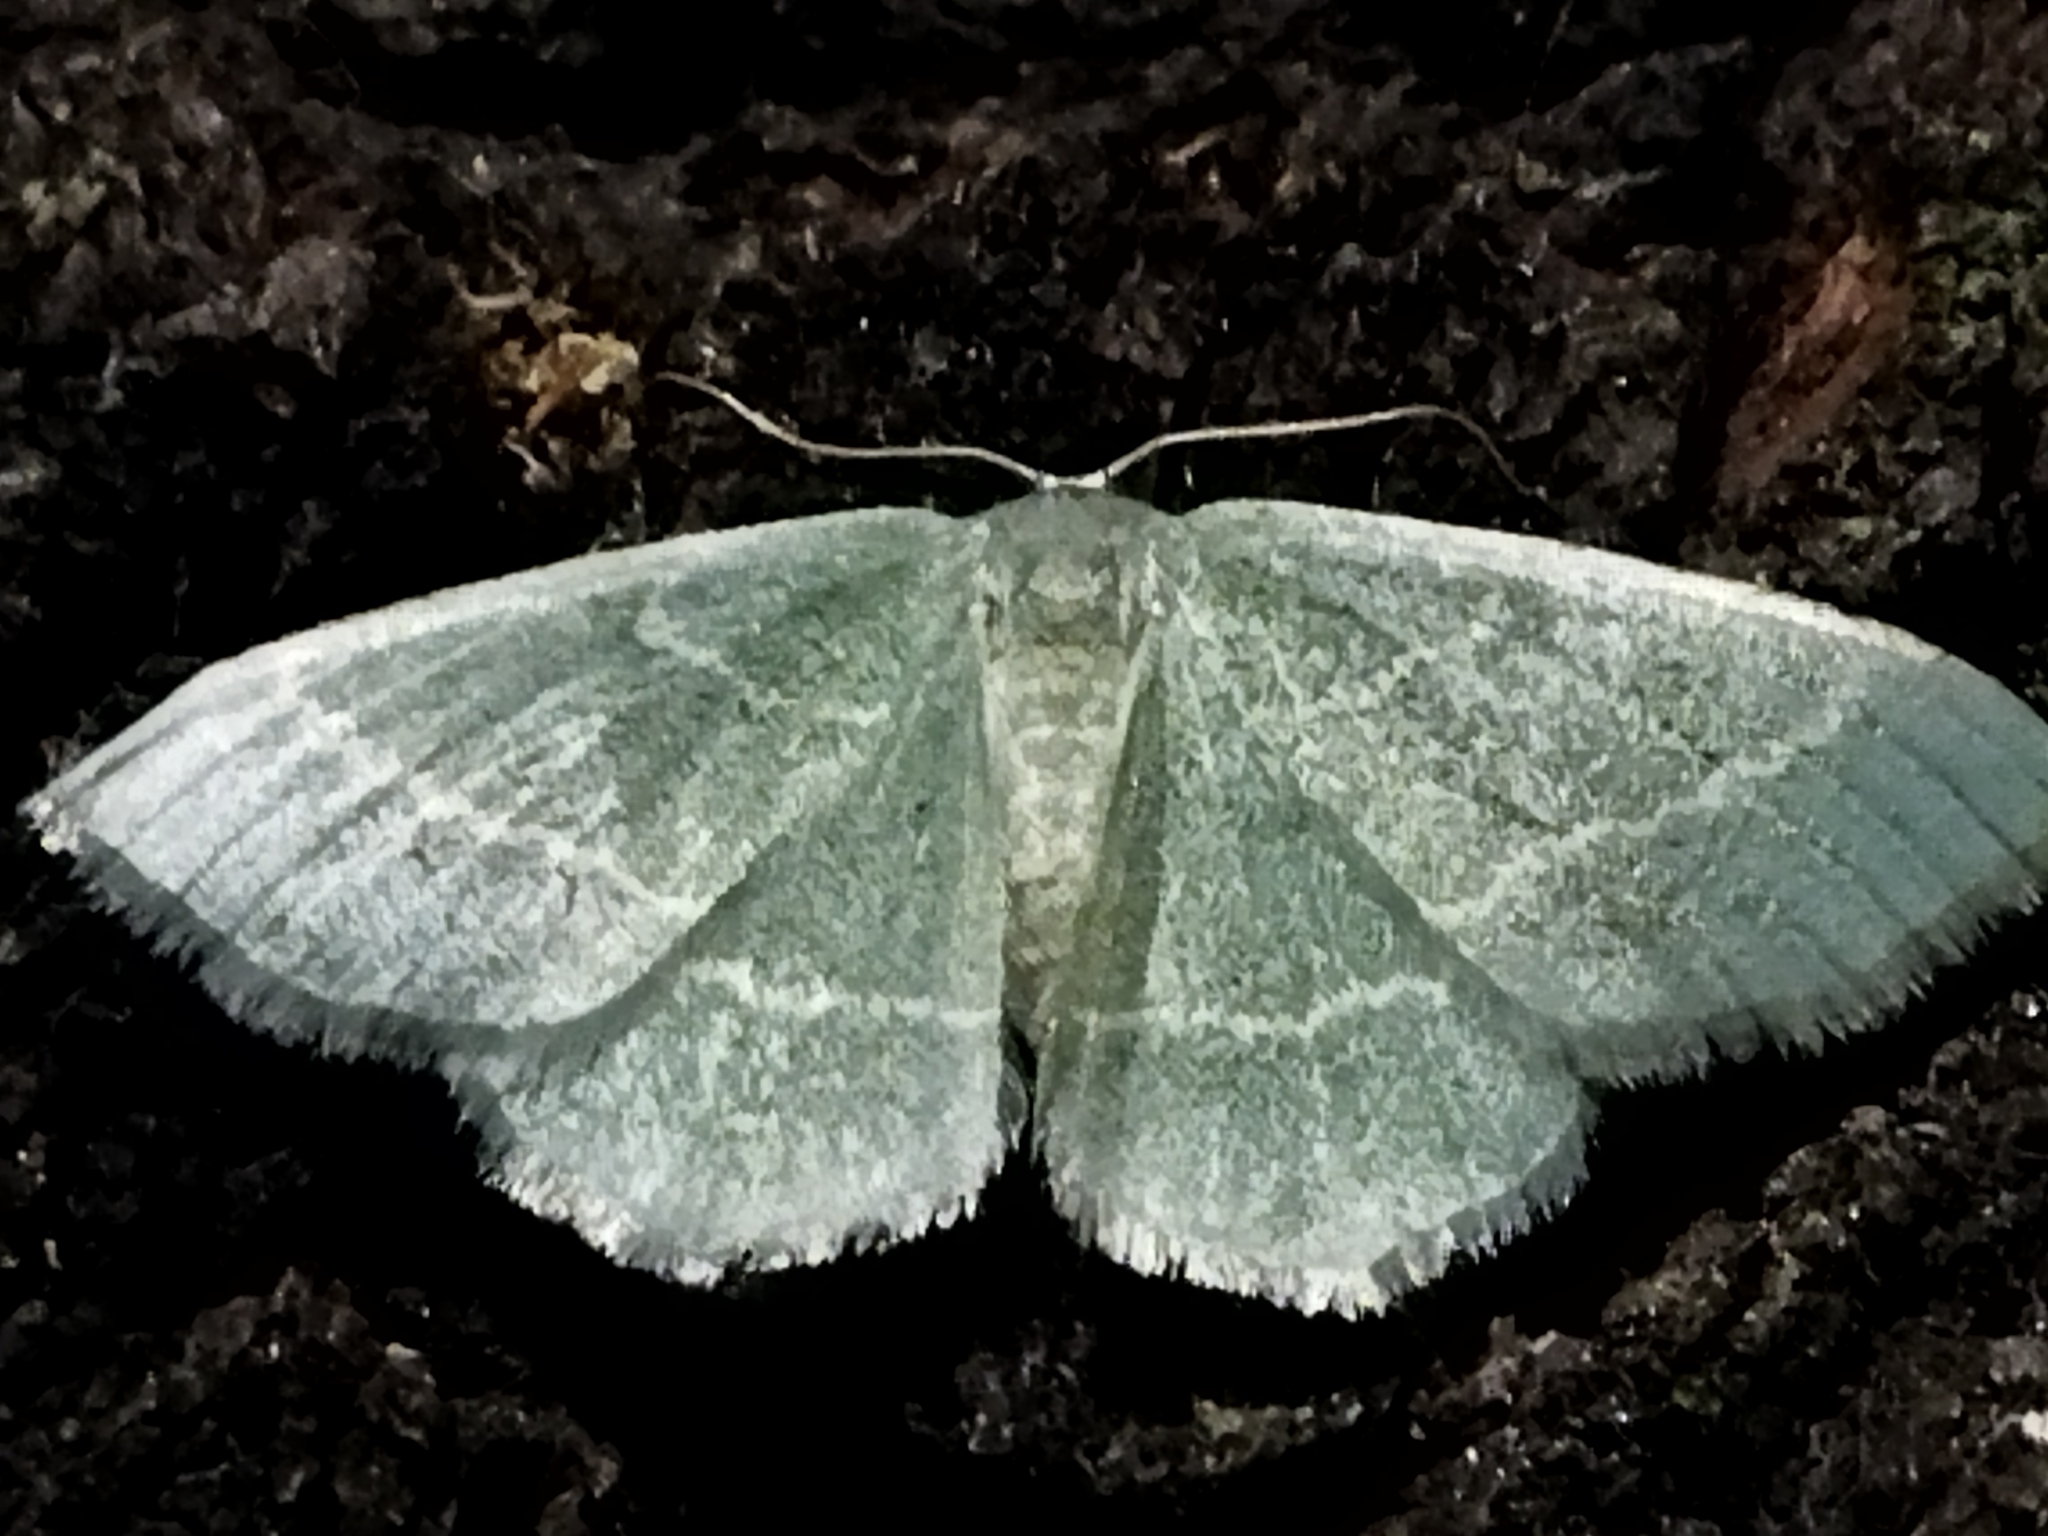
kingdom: Animalia
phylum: Arthropoda
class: Insecta
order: Lepidoptera
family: Geometridae
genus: Chlorissa
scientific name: Chlorissa
